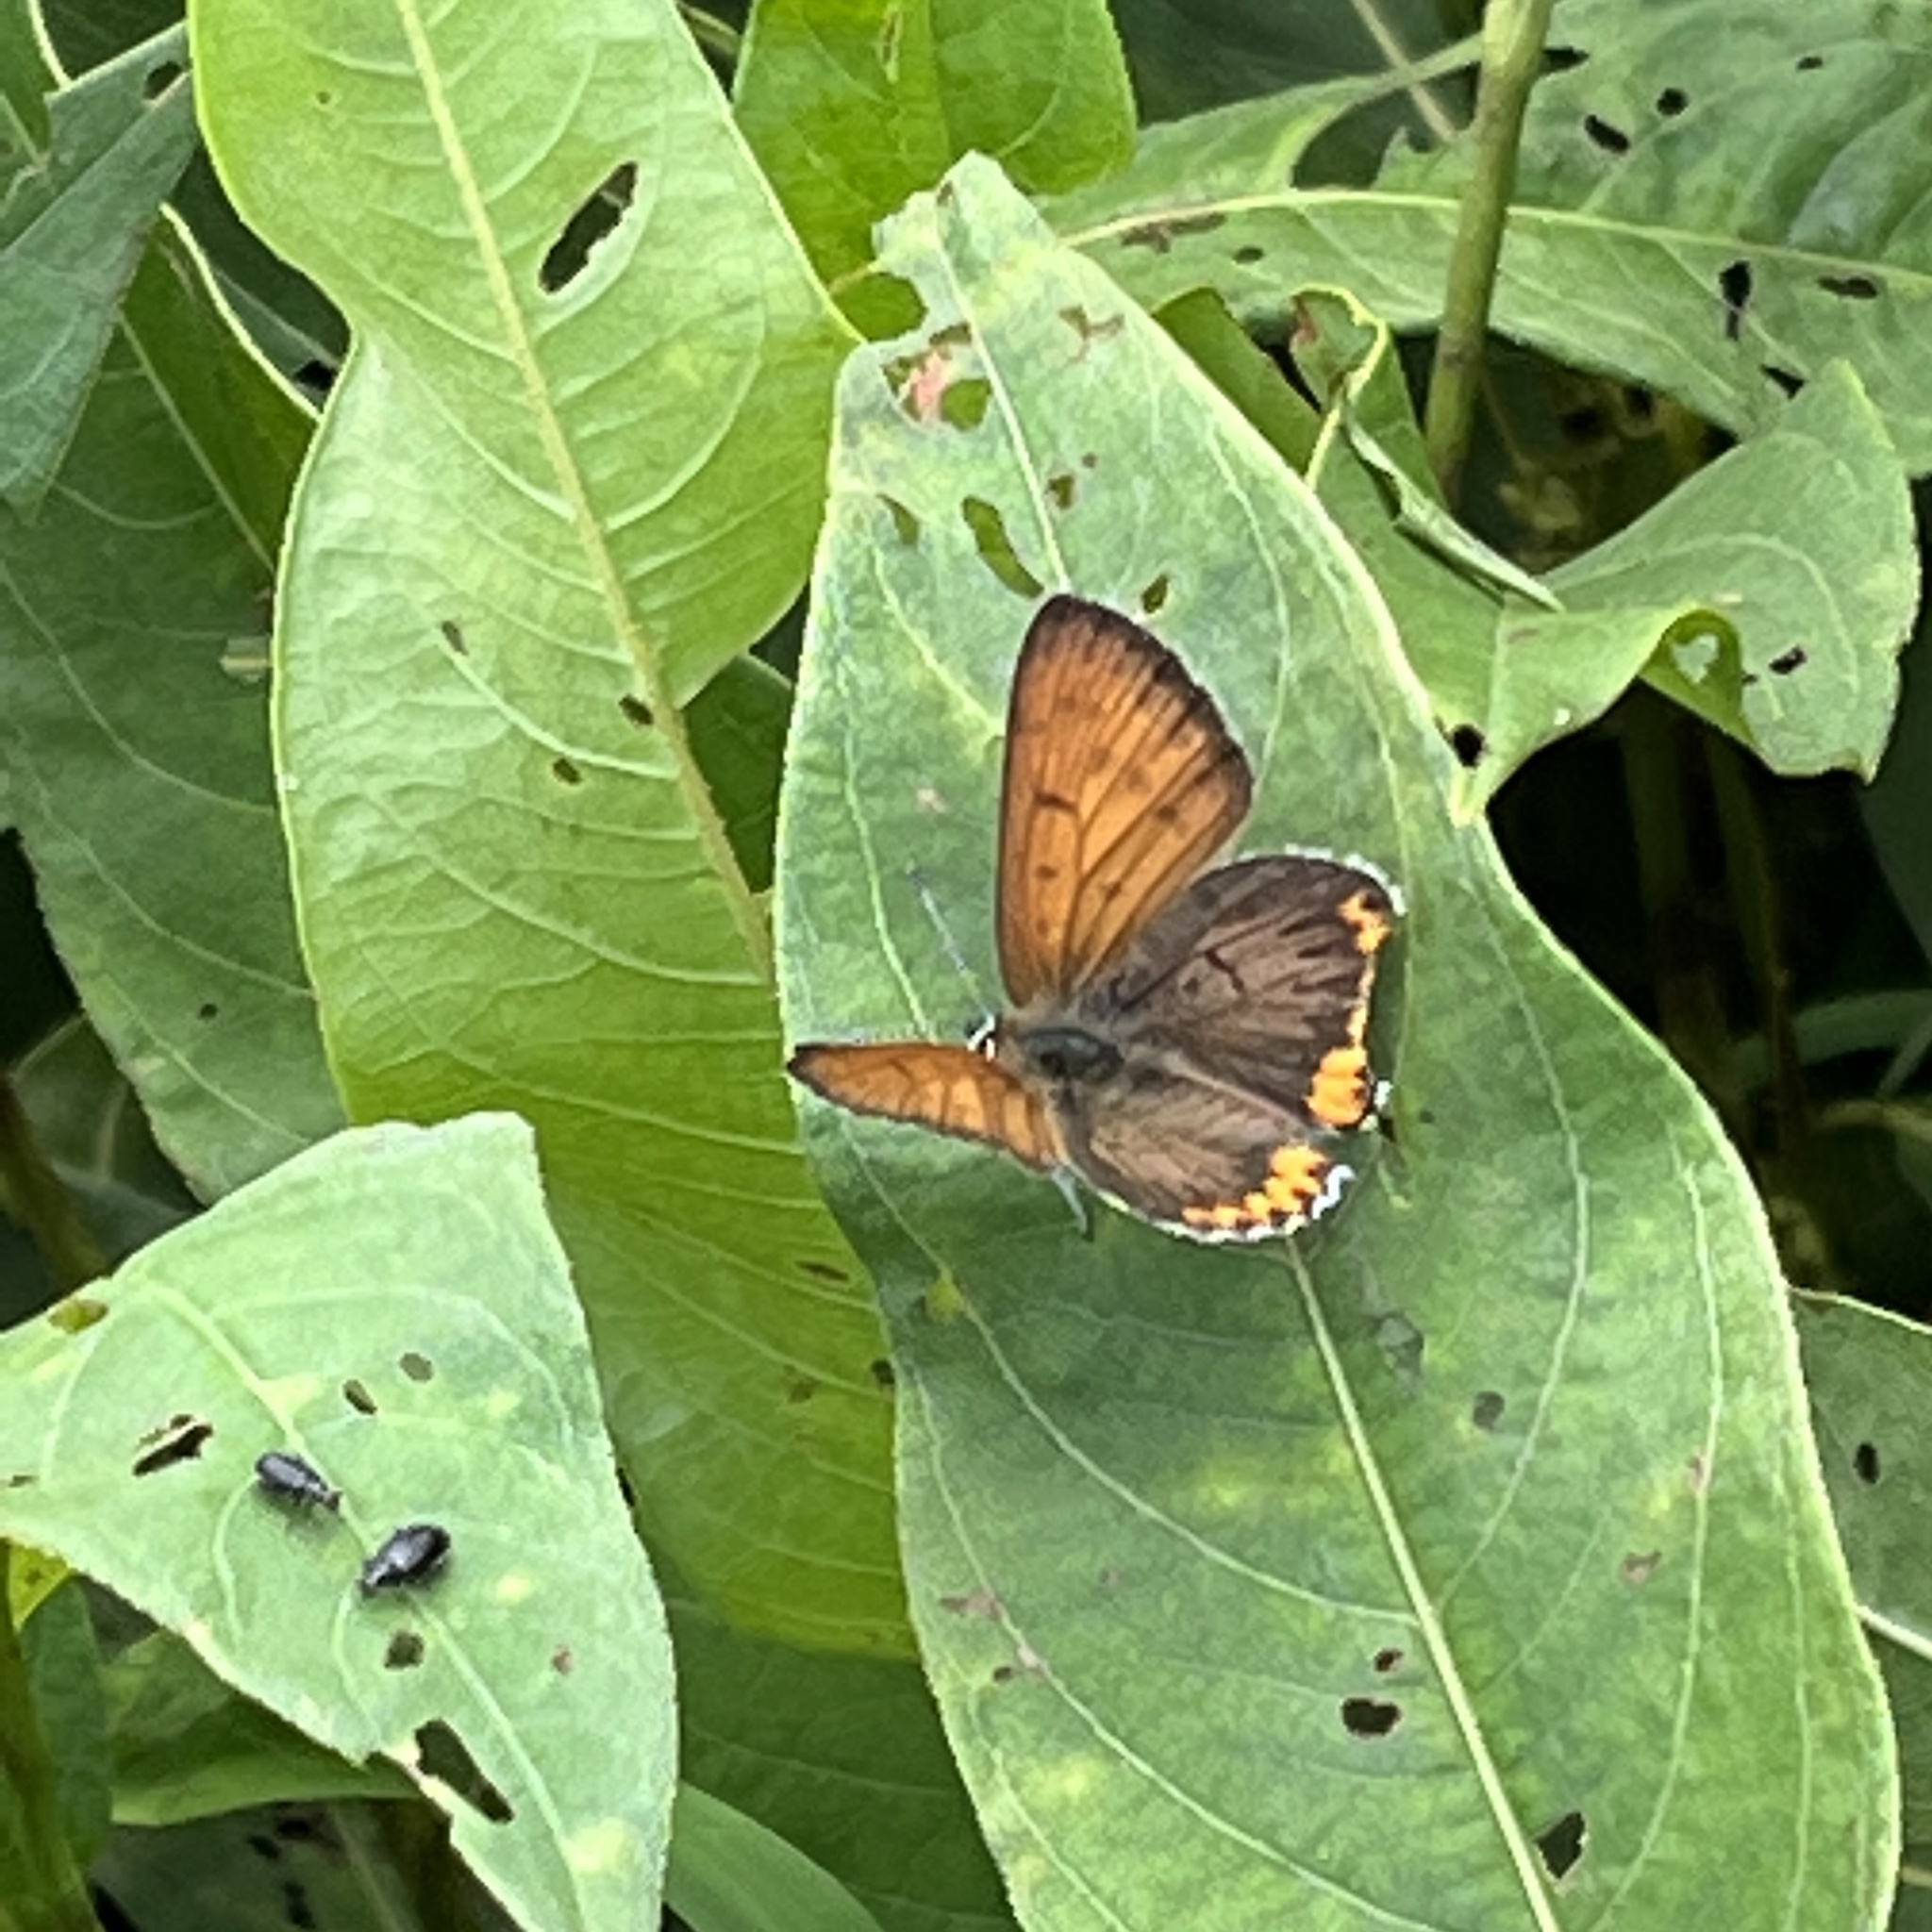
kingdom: Animalia
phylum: Arthropoda
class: Insecta
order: Lepidoptera
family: Lycaenidae
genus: Tharsalea
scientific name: Tharsalea hyllus
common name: Bronze copper
